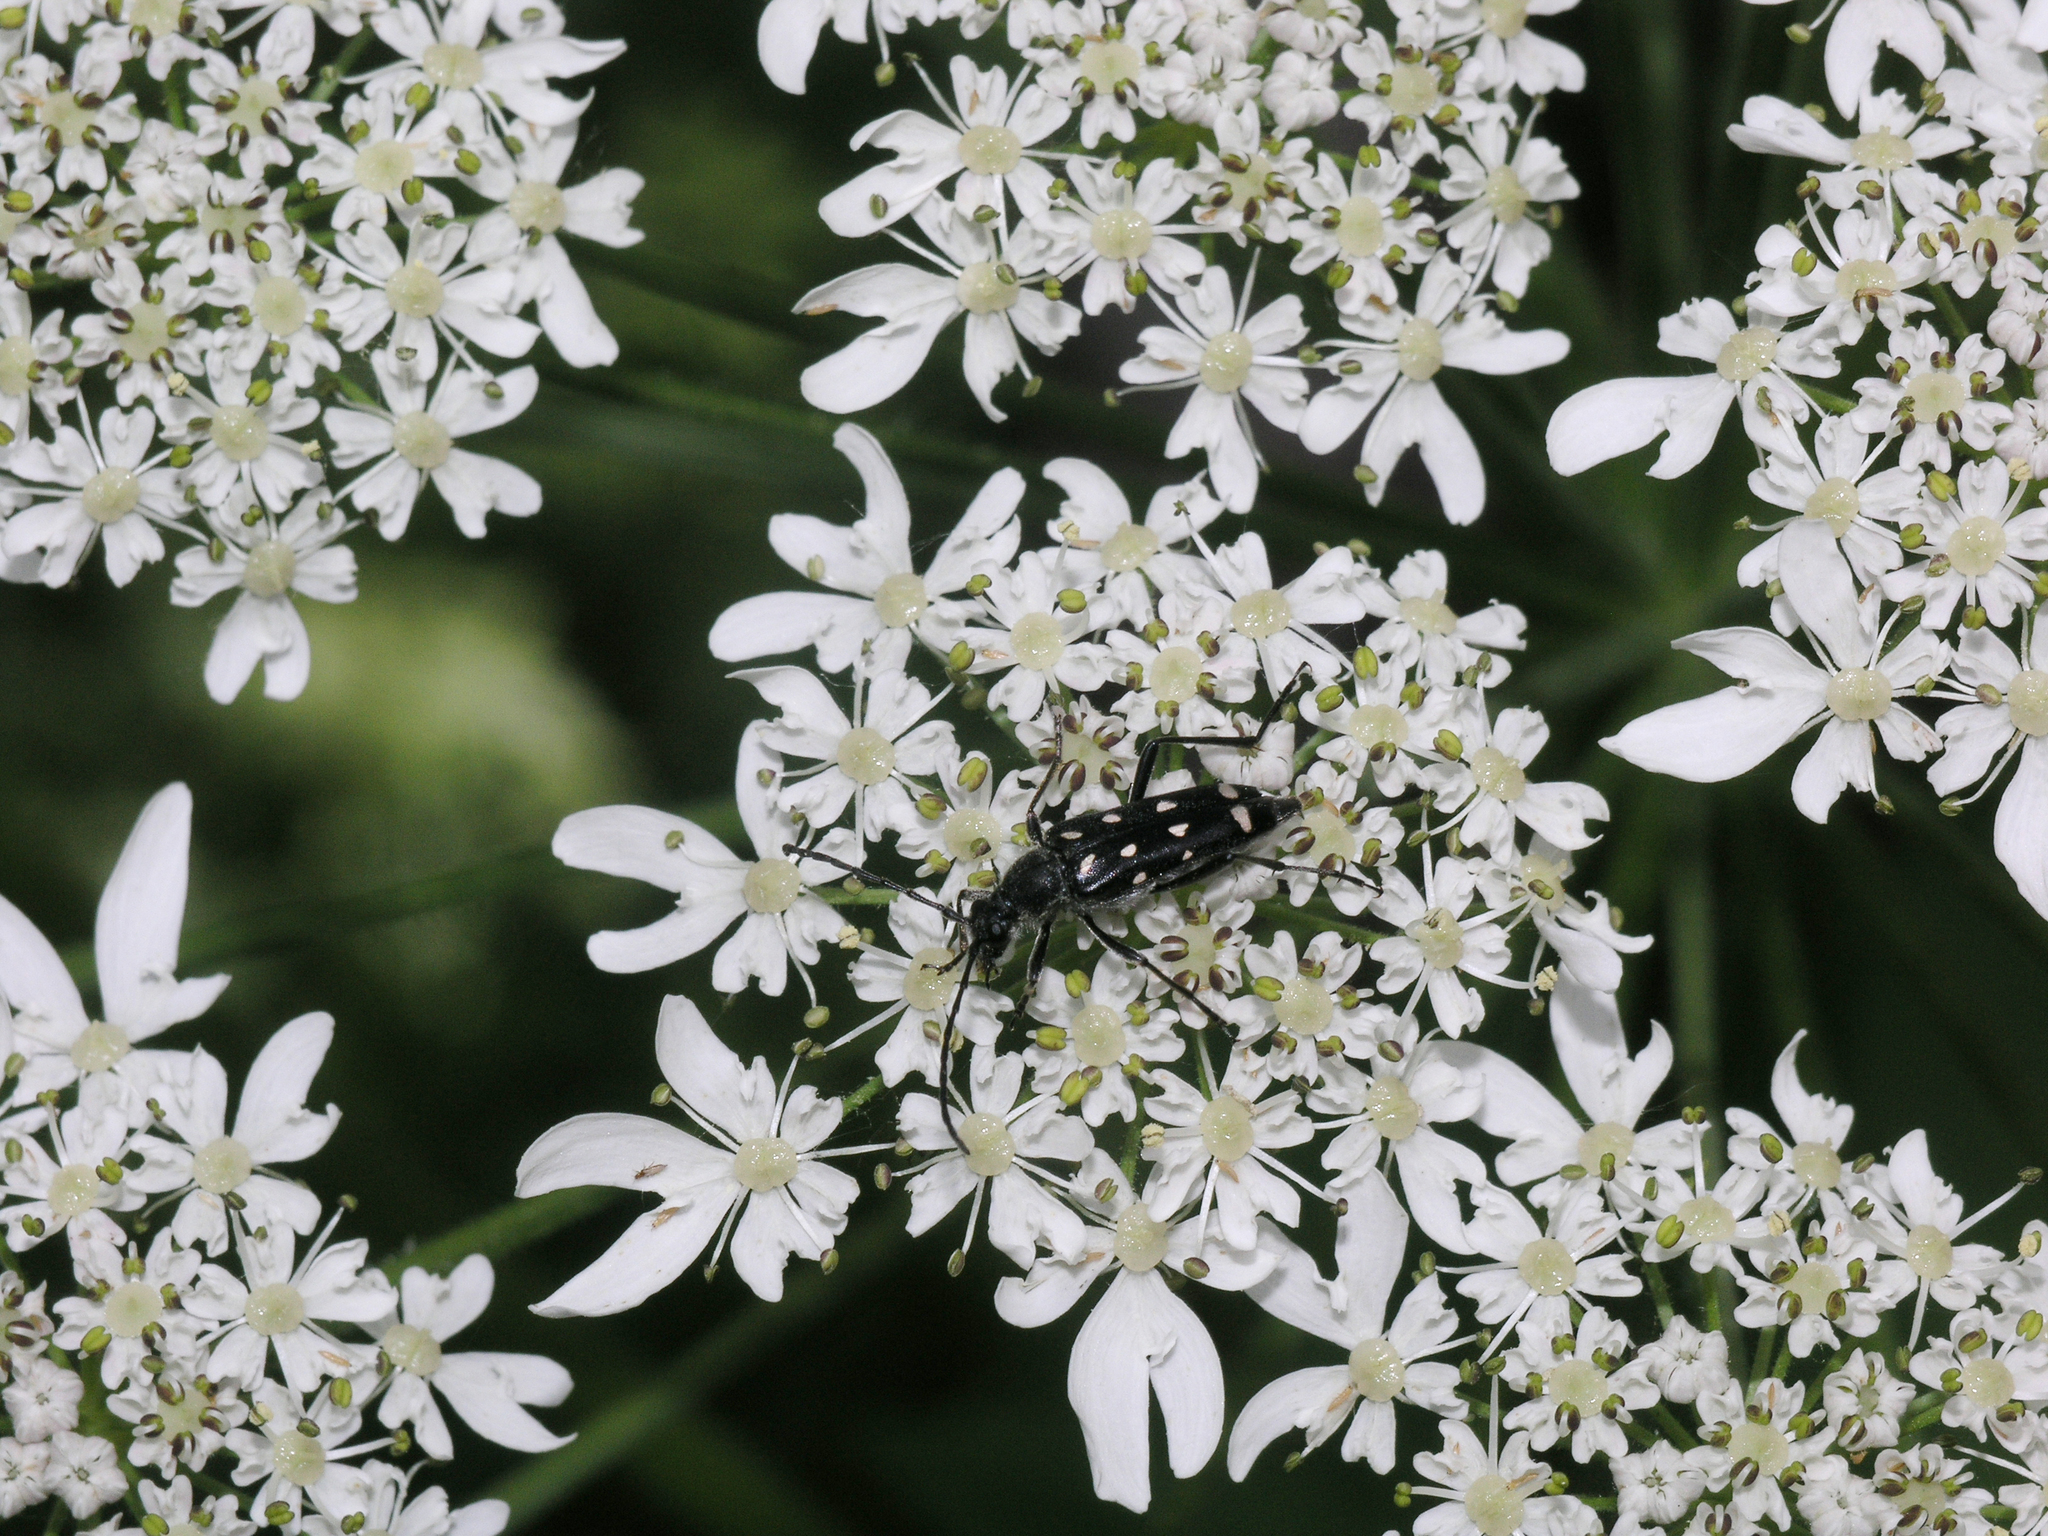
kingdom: Plantae
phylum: Tracheophyta
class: Magnoliopsida
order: Apiales
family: Apiaceae
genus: Heracleum
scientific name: Heracleum dissectum
